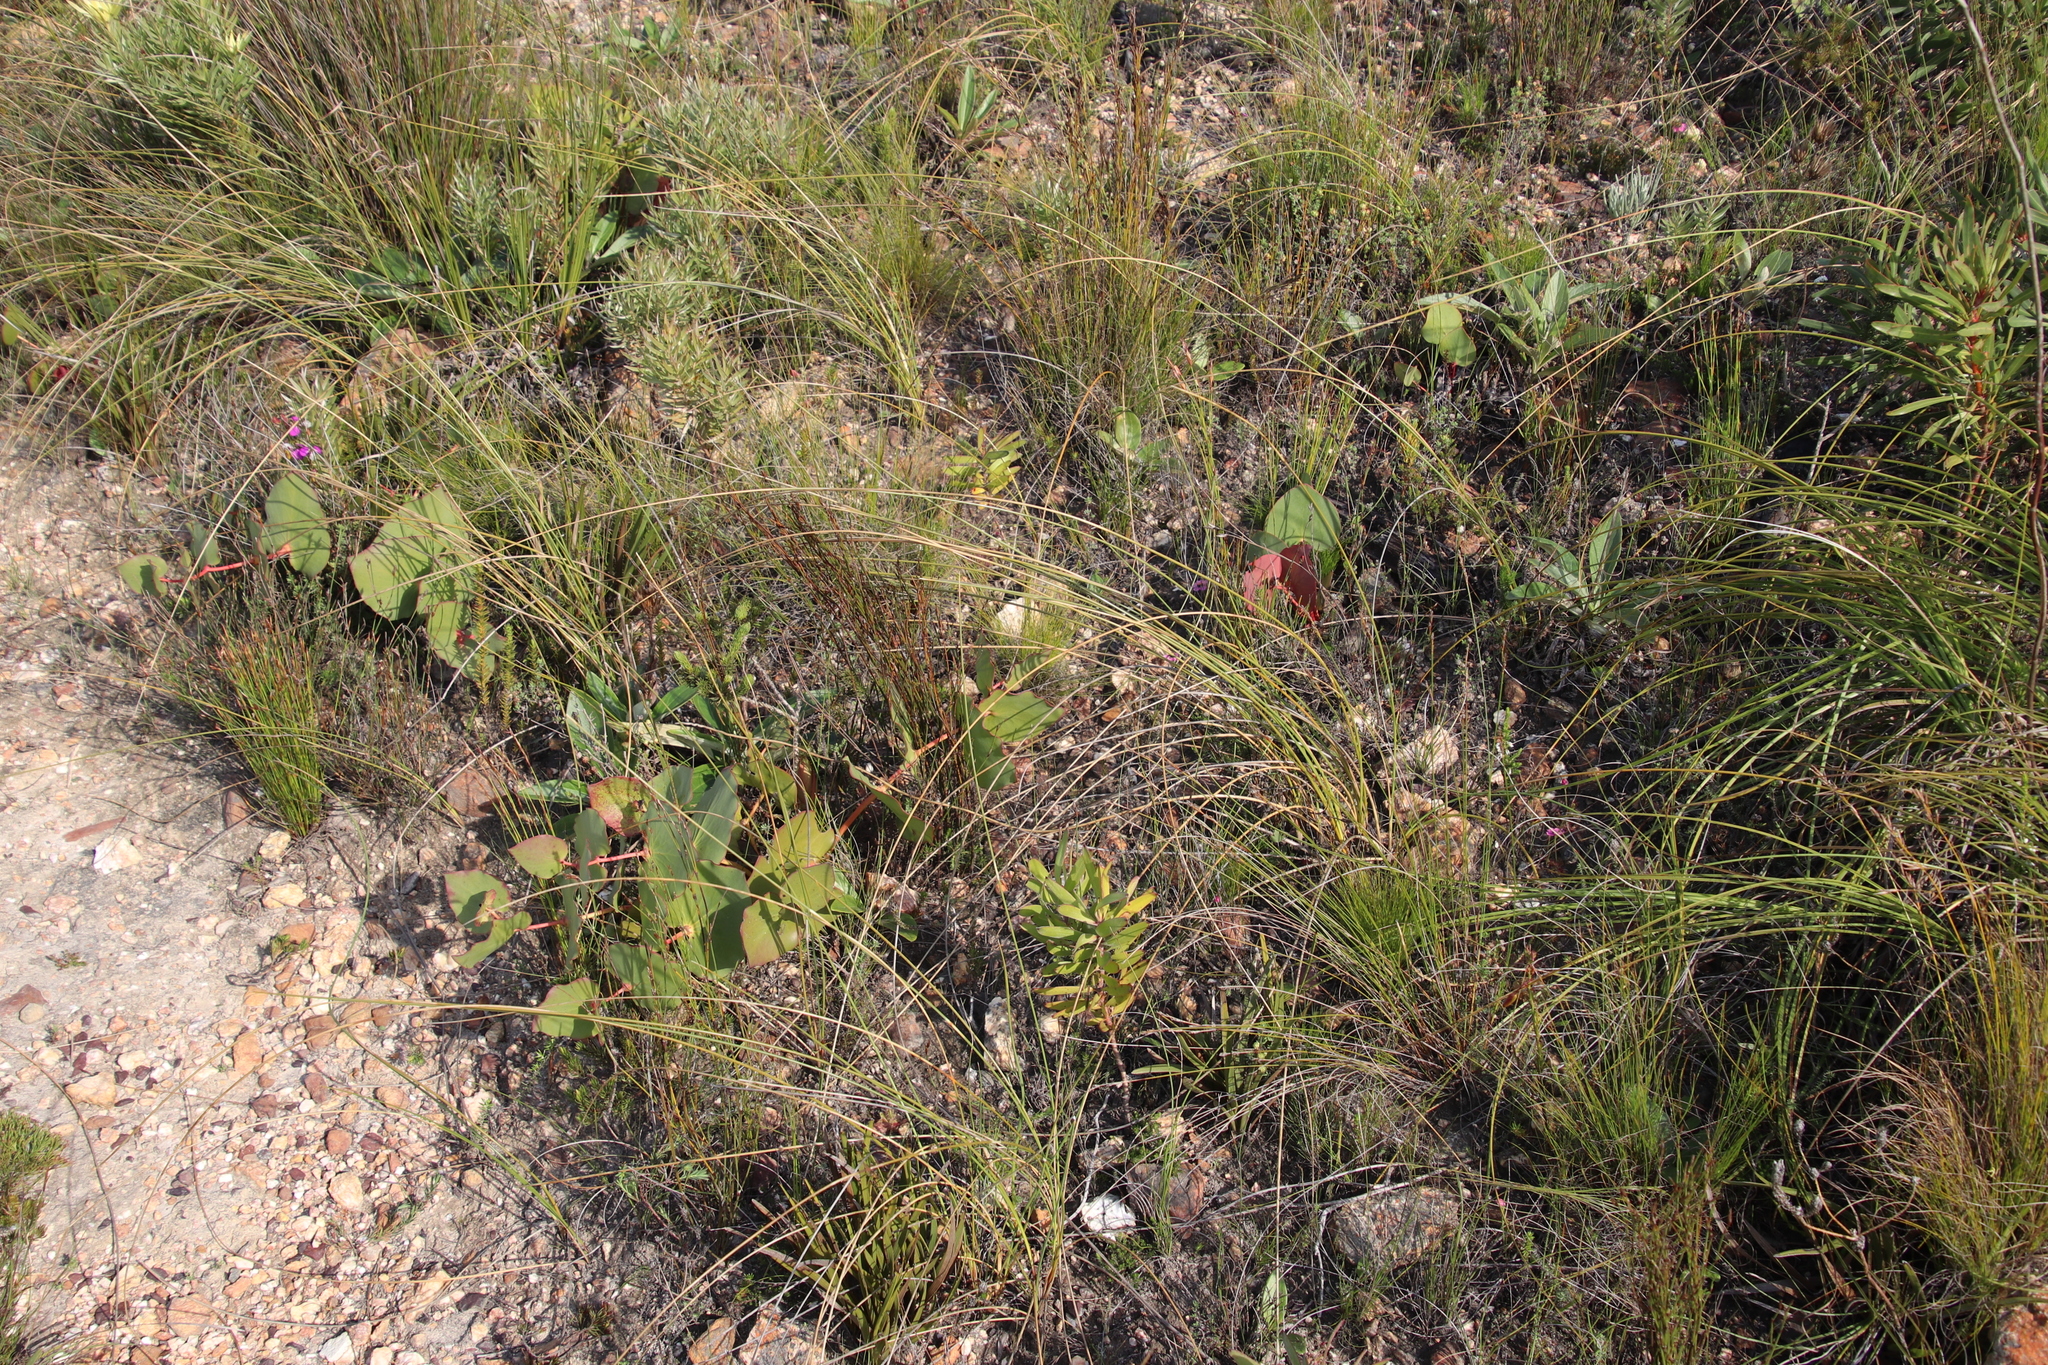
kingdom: Plantae
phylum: Tracheophyta
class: Magnoliopsida
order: Proteales
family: Proteaceae
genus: Protea
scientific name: Protea cordata
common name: Heart-leaf sugarbush
